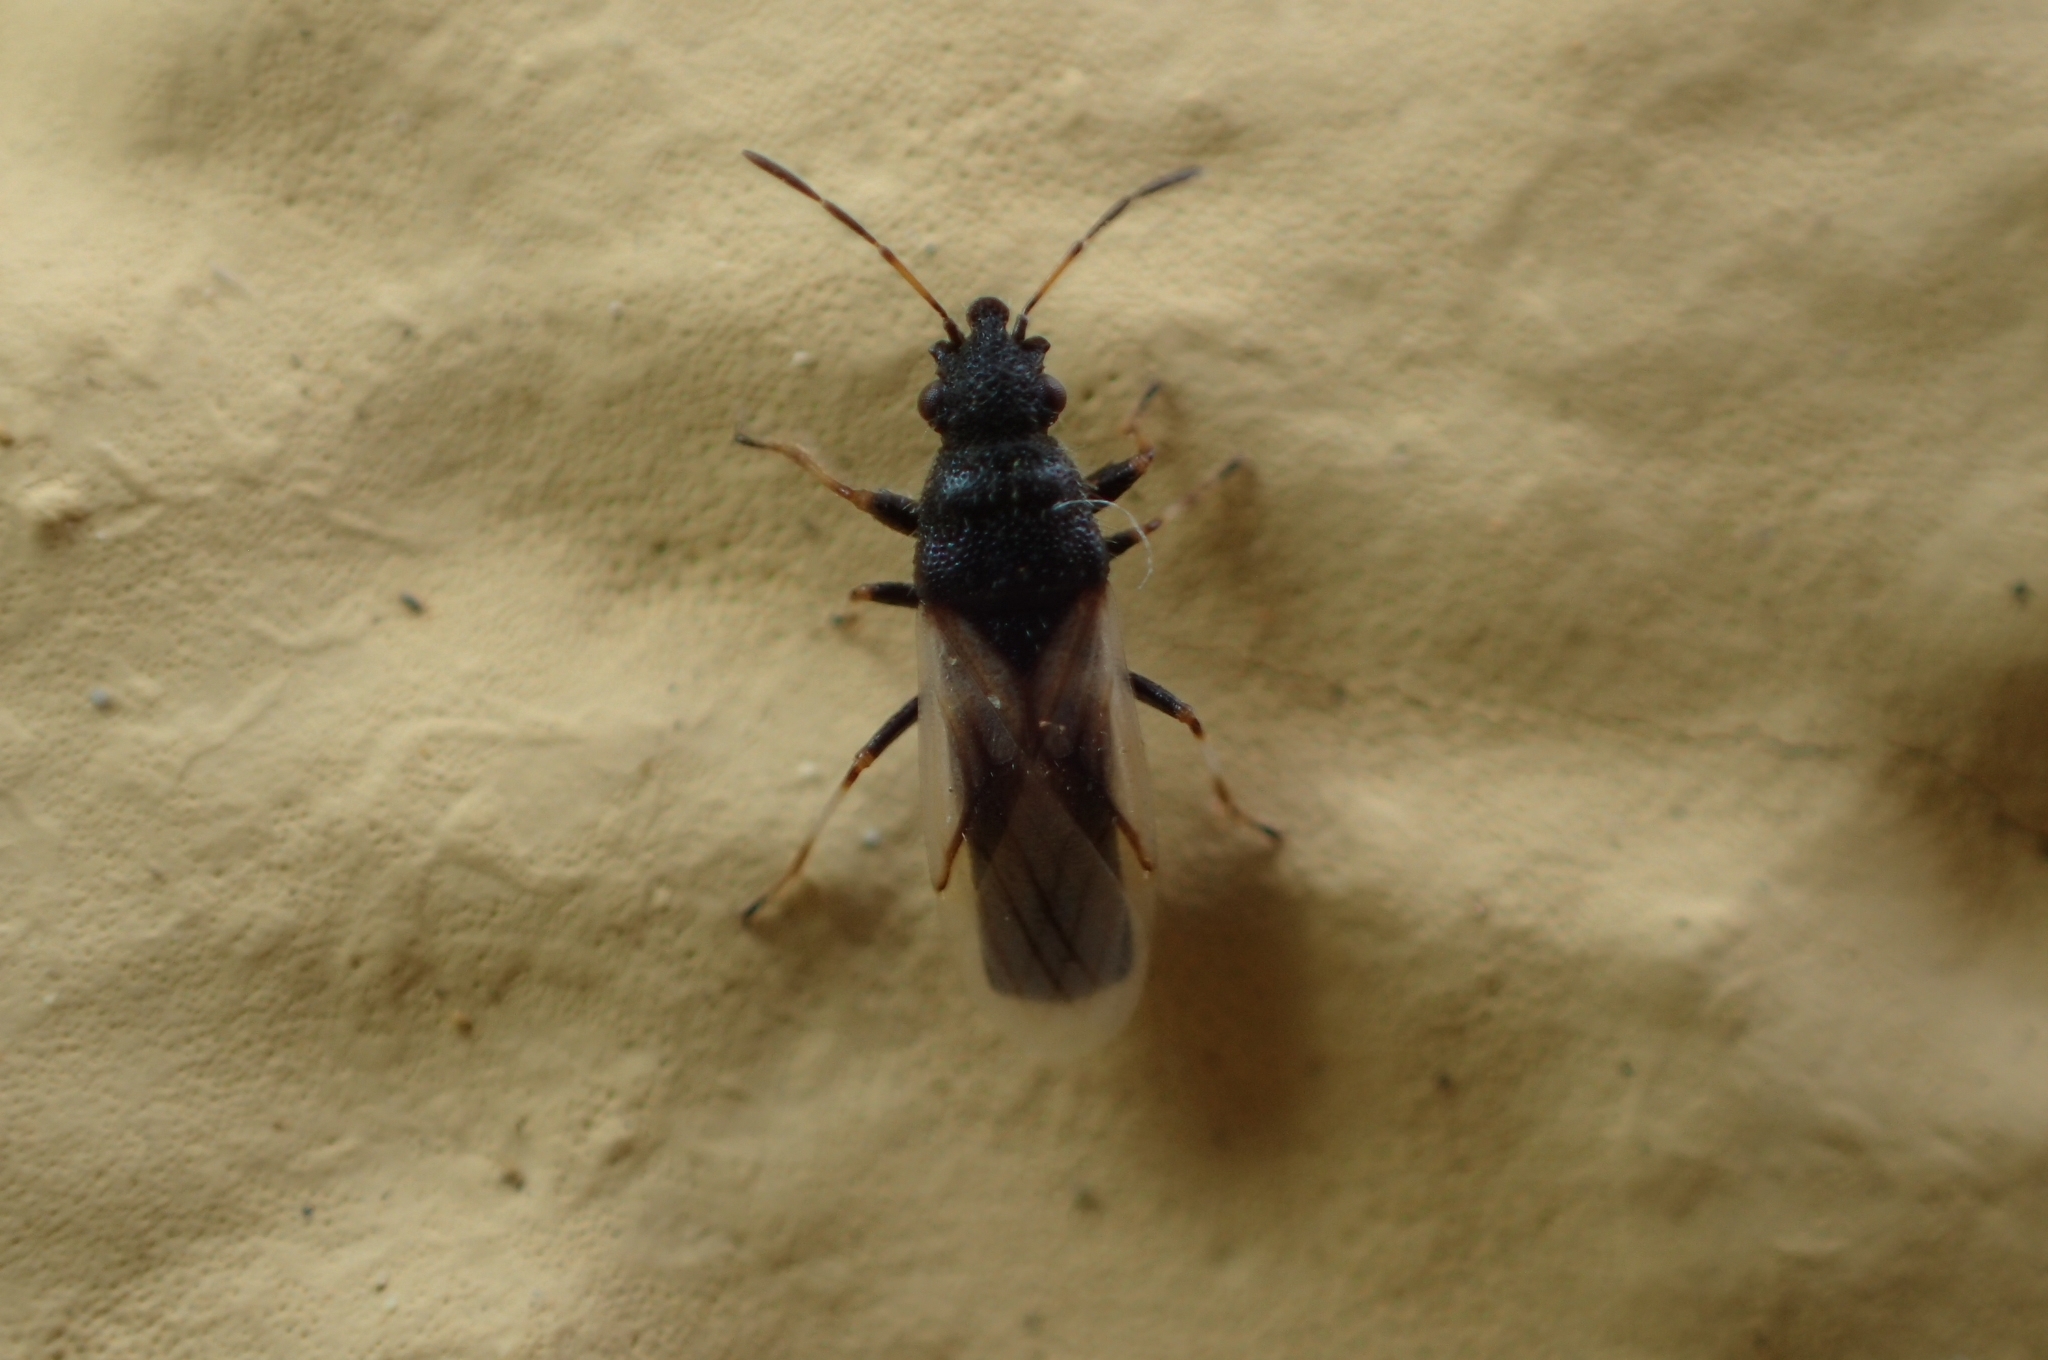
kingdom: Animalia
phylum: Arthropoda
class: Insecta
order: Hemiptera
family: Oxycarenidae
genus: Metopoplax
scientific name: Metopoplax ditomoides
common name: Seed bug
